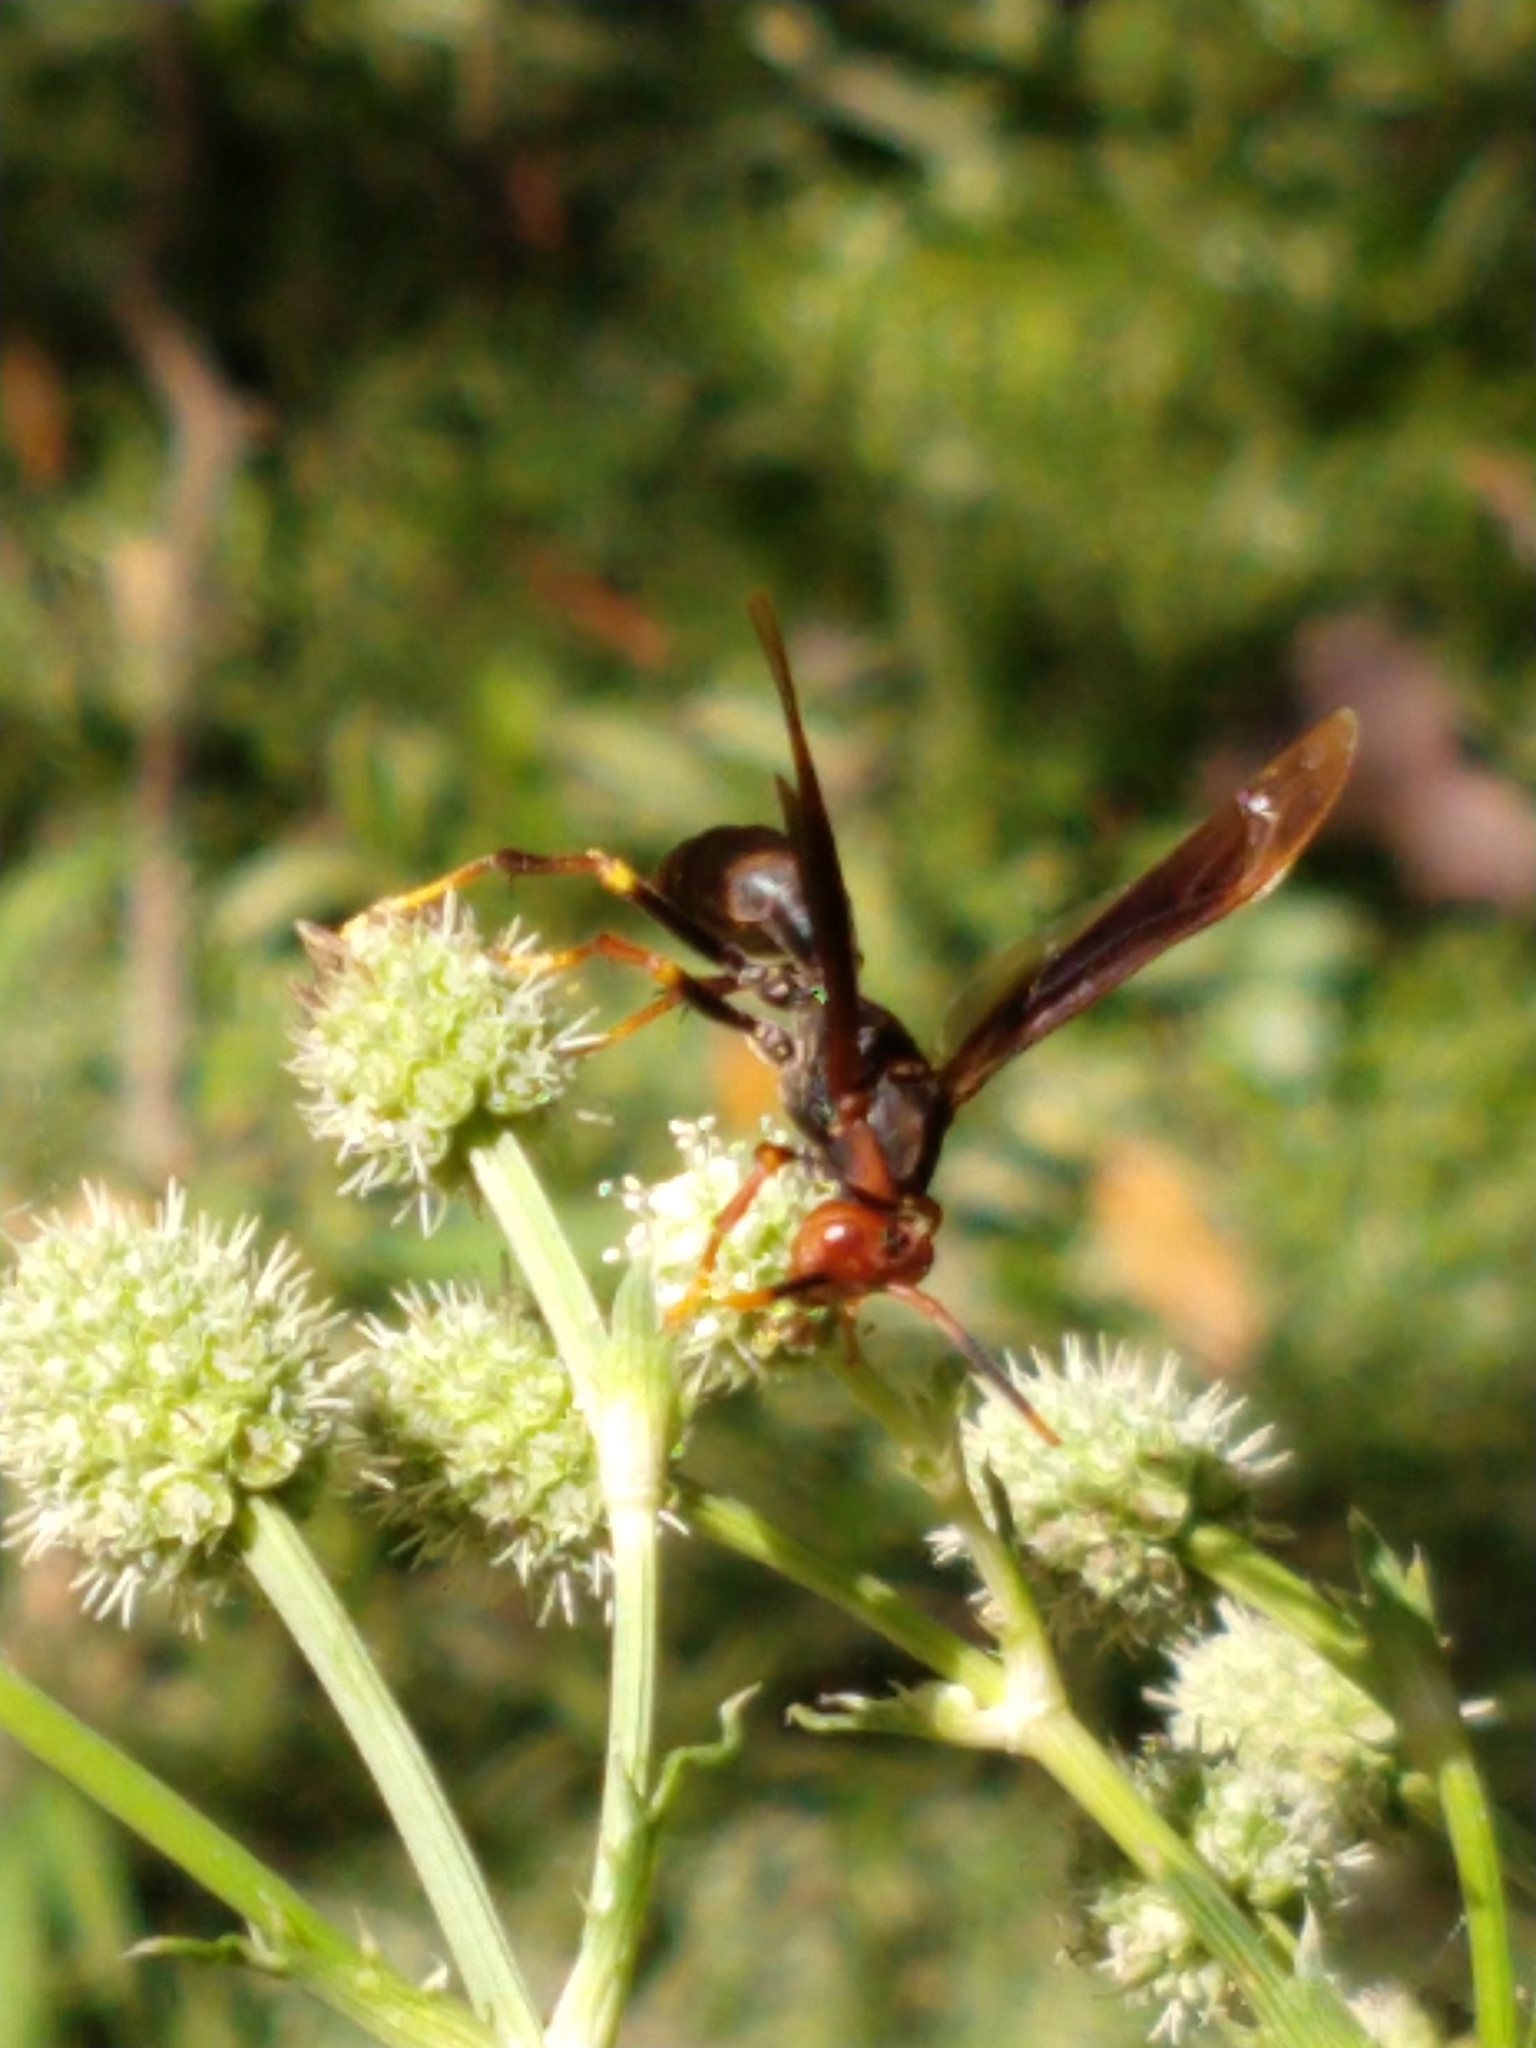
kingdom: Animalia
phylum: Arthropoda
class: Insecta
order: Hymenoptera
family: Pompilidae
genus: Aphanilopterus
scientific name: Aphanilopterus
